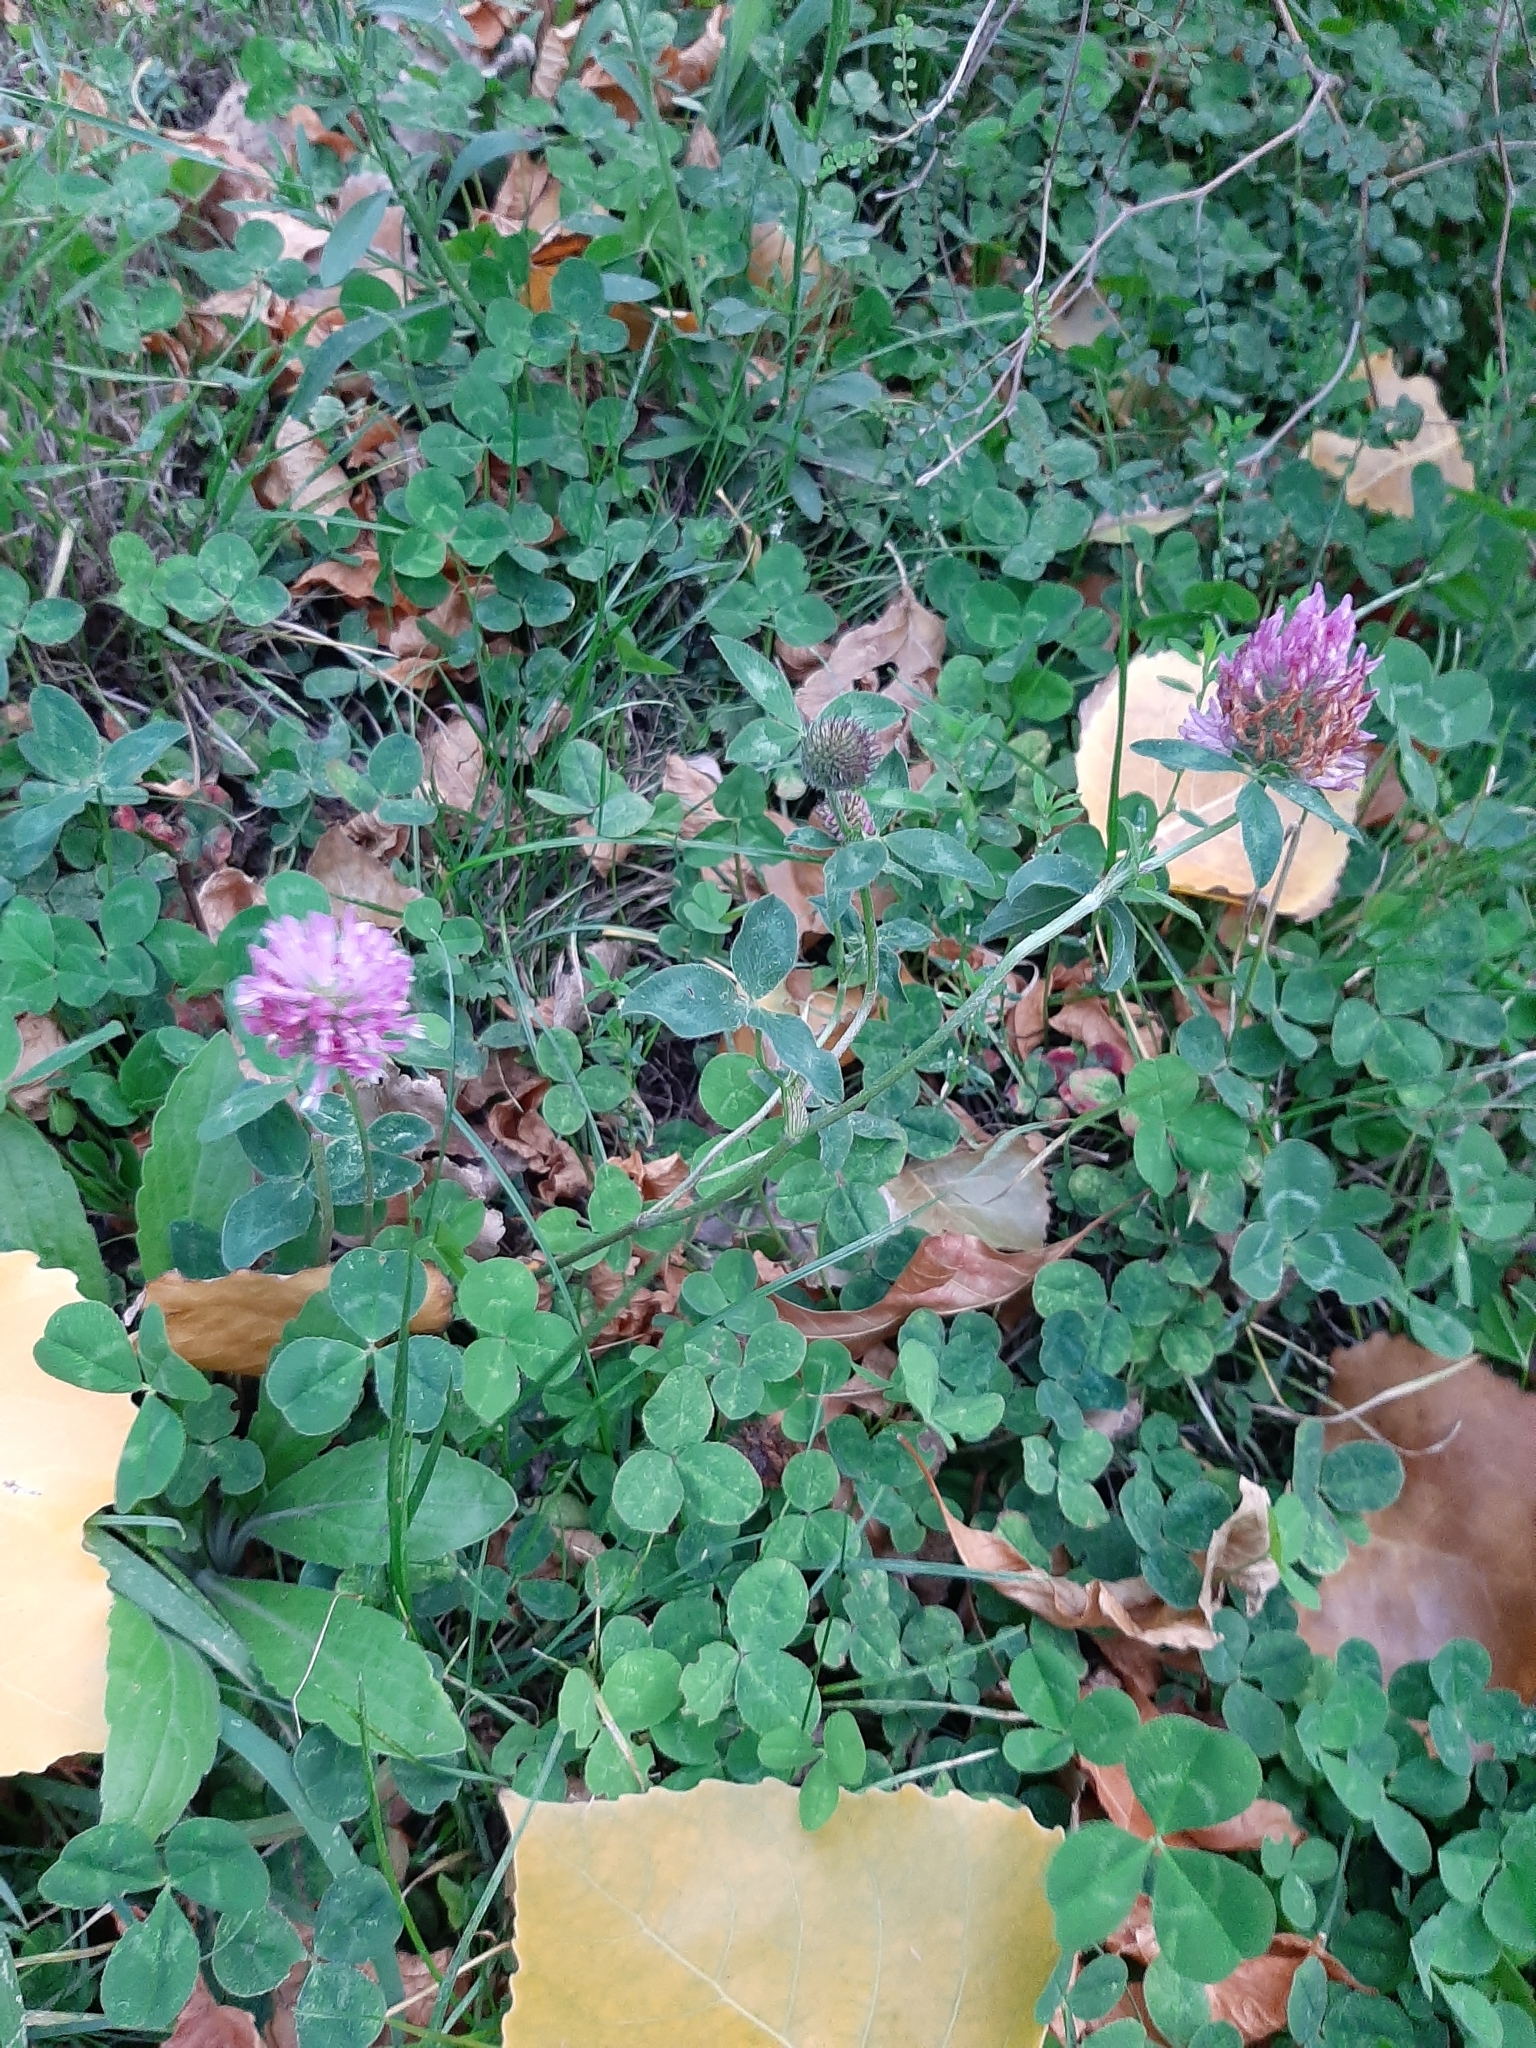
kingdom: Plantae
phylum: Tracheophyta
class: Magnoliopsida
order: Fabales
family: Fabaceae
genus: Trifolium
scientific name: Trifolium pratense
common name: Red clover
